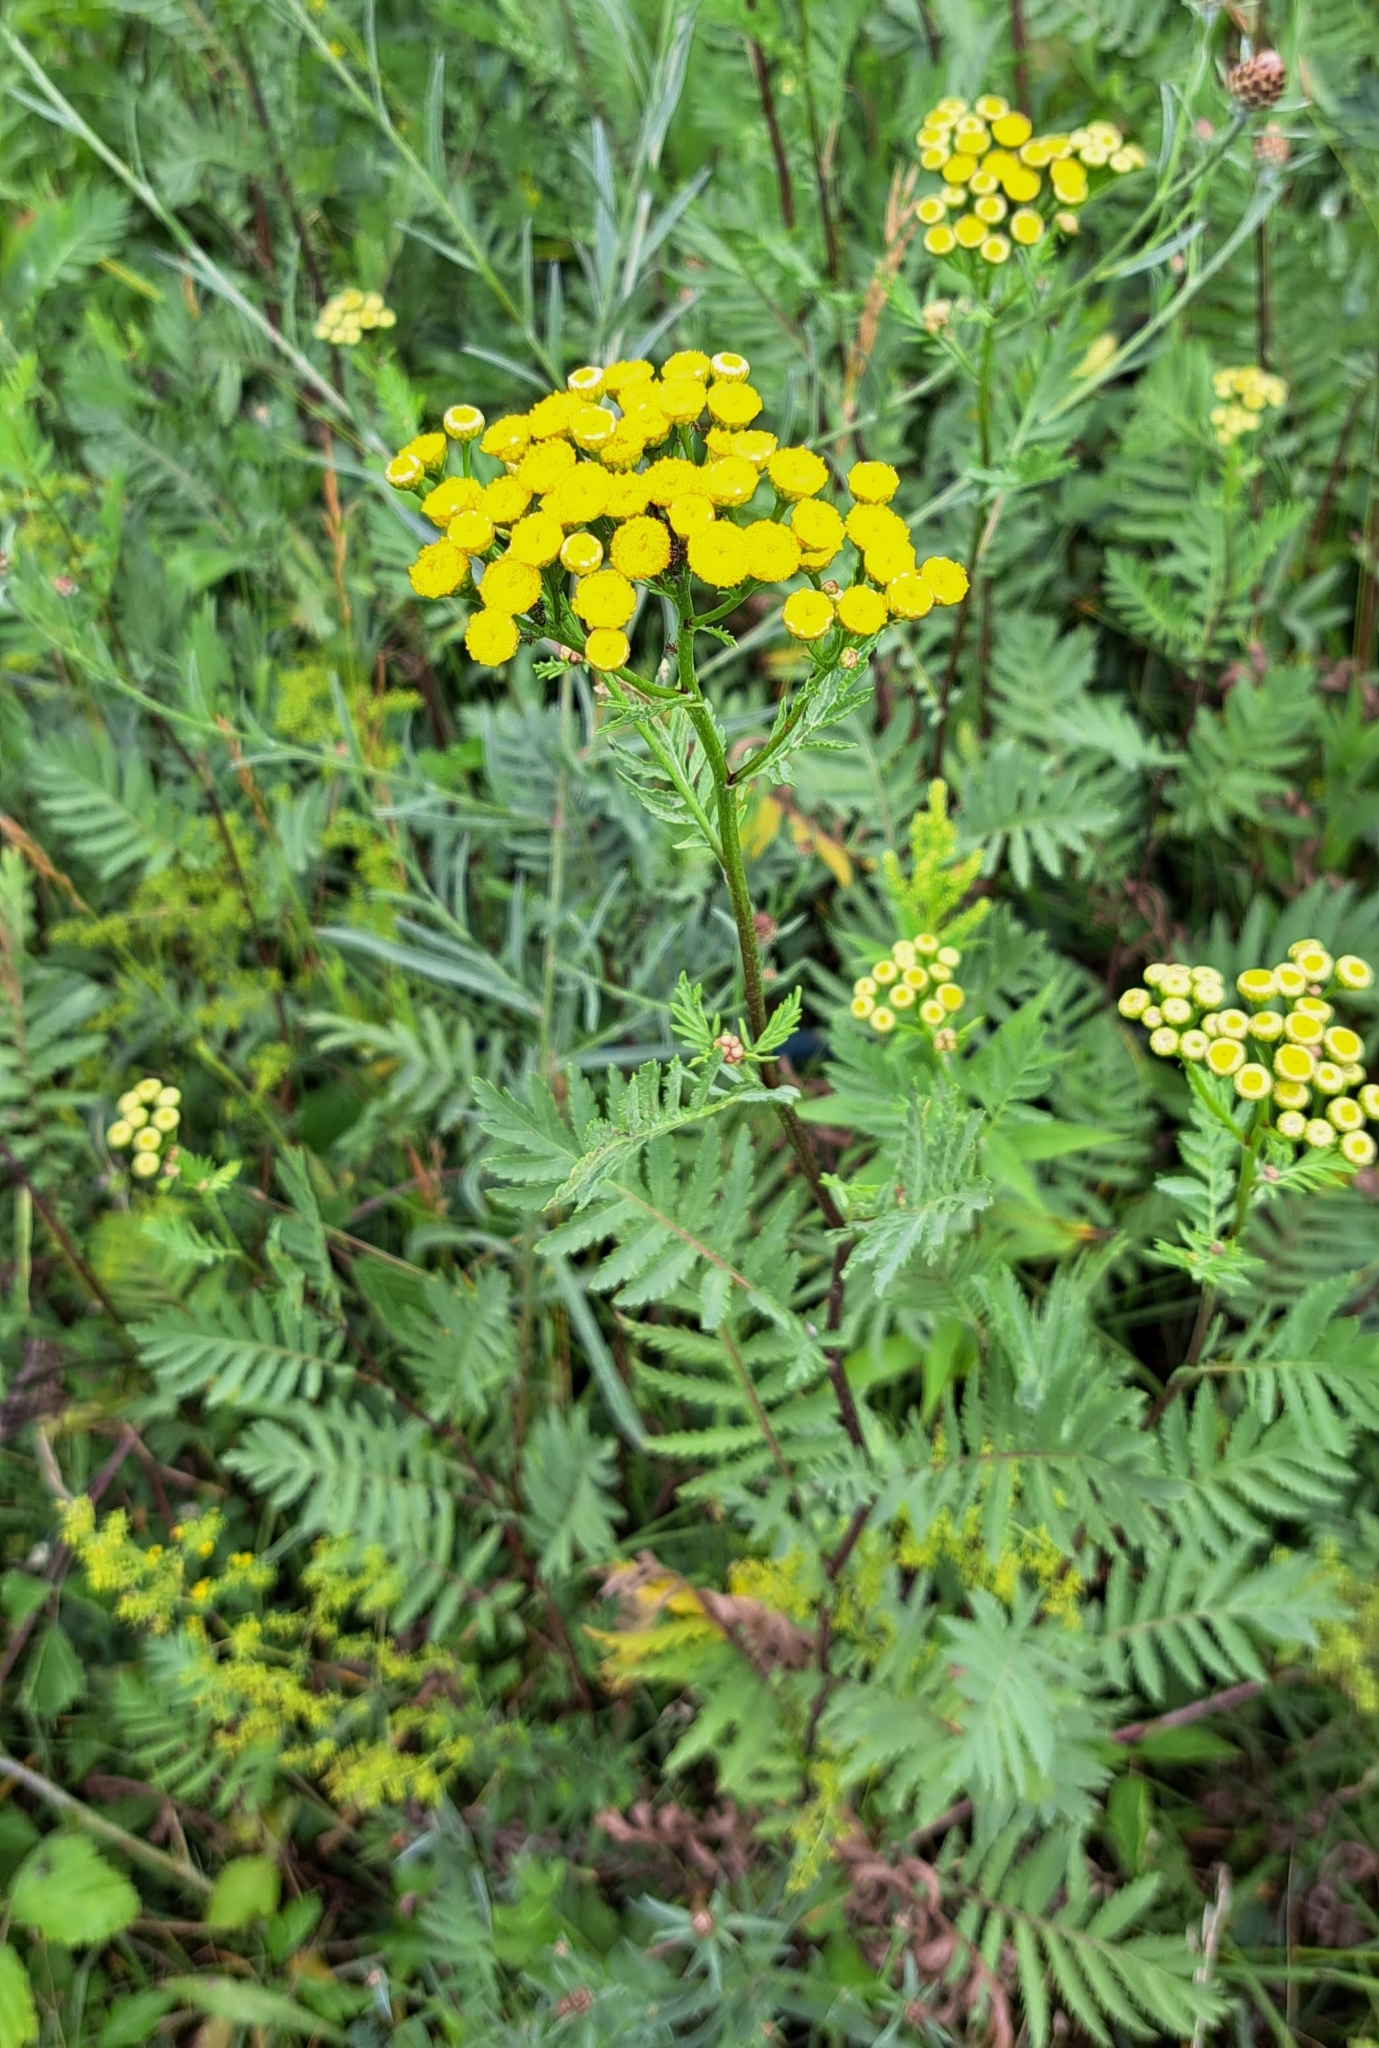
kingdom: Plantae
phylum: Tracheophyta
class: Magnoliopsida
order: Asterales
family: Asteraceae
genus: Tanacetum
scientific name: Tanacetum vulgare
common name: Common tansy
